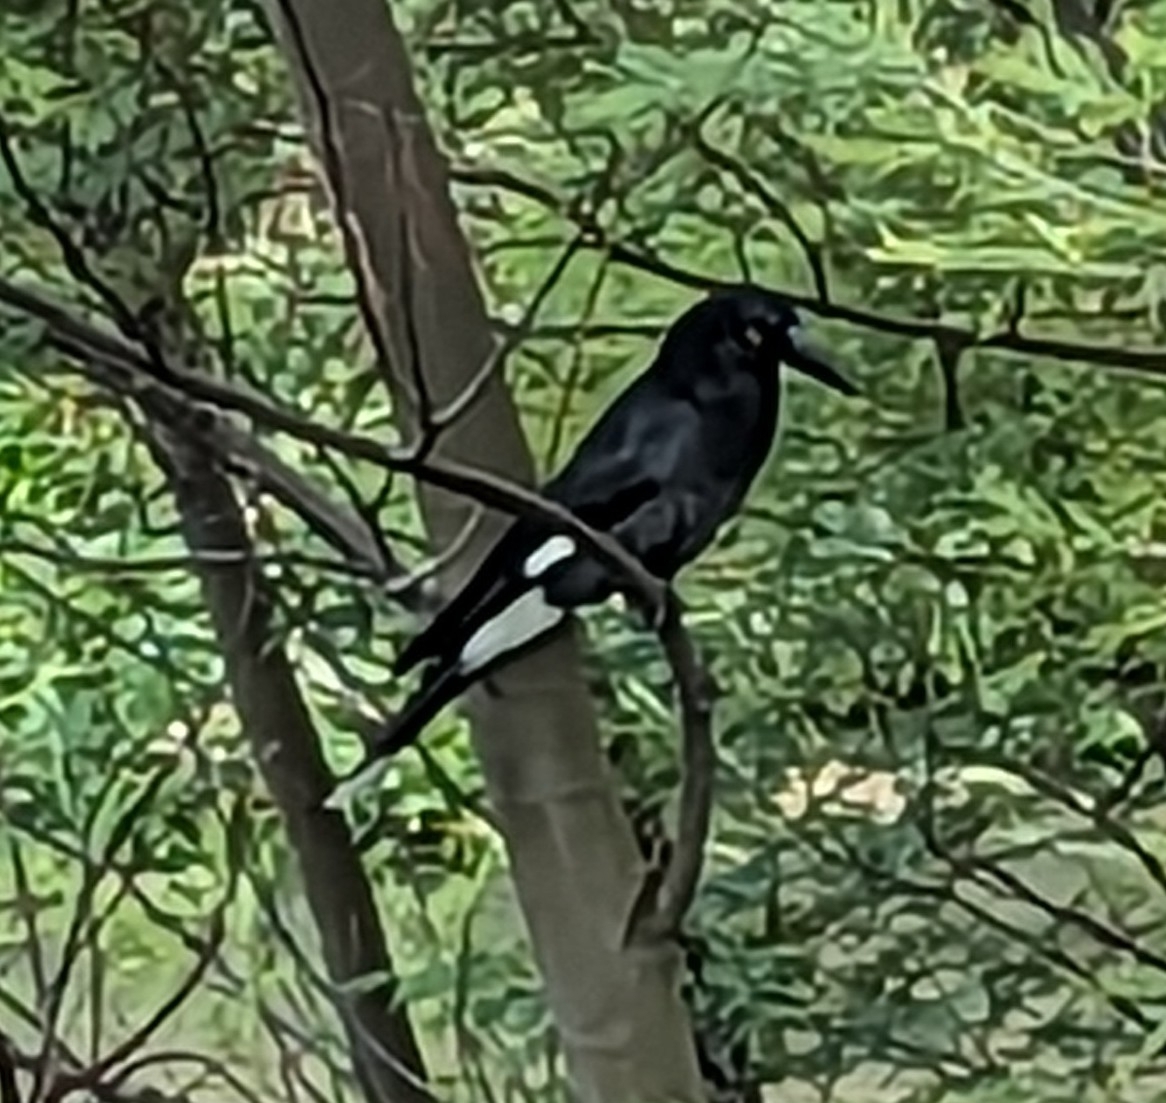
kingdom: Animalia
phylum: Chordata
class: Aves
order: Passeriformes
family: Cracticidae
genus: Strepera
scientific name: Strepera graculina
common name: Pied currawong
